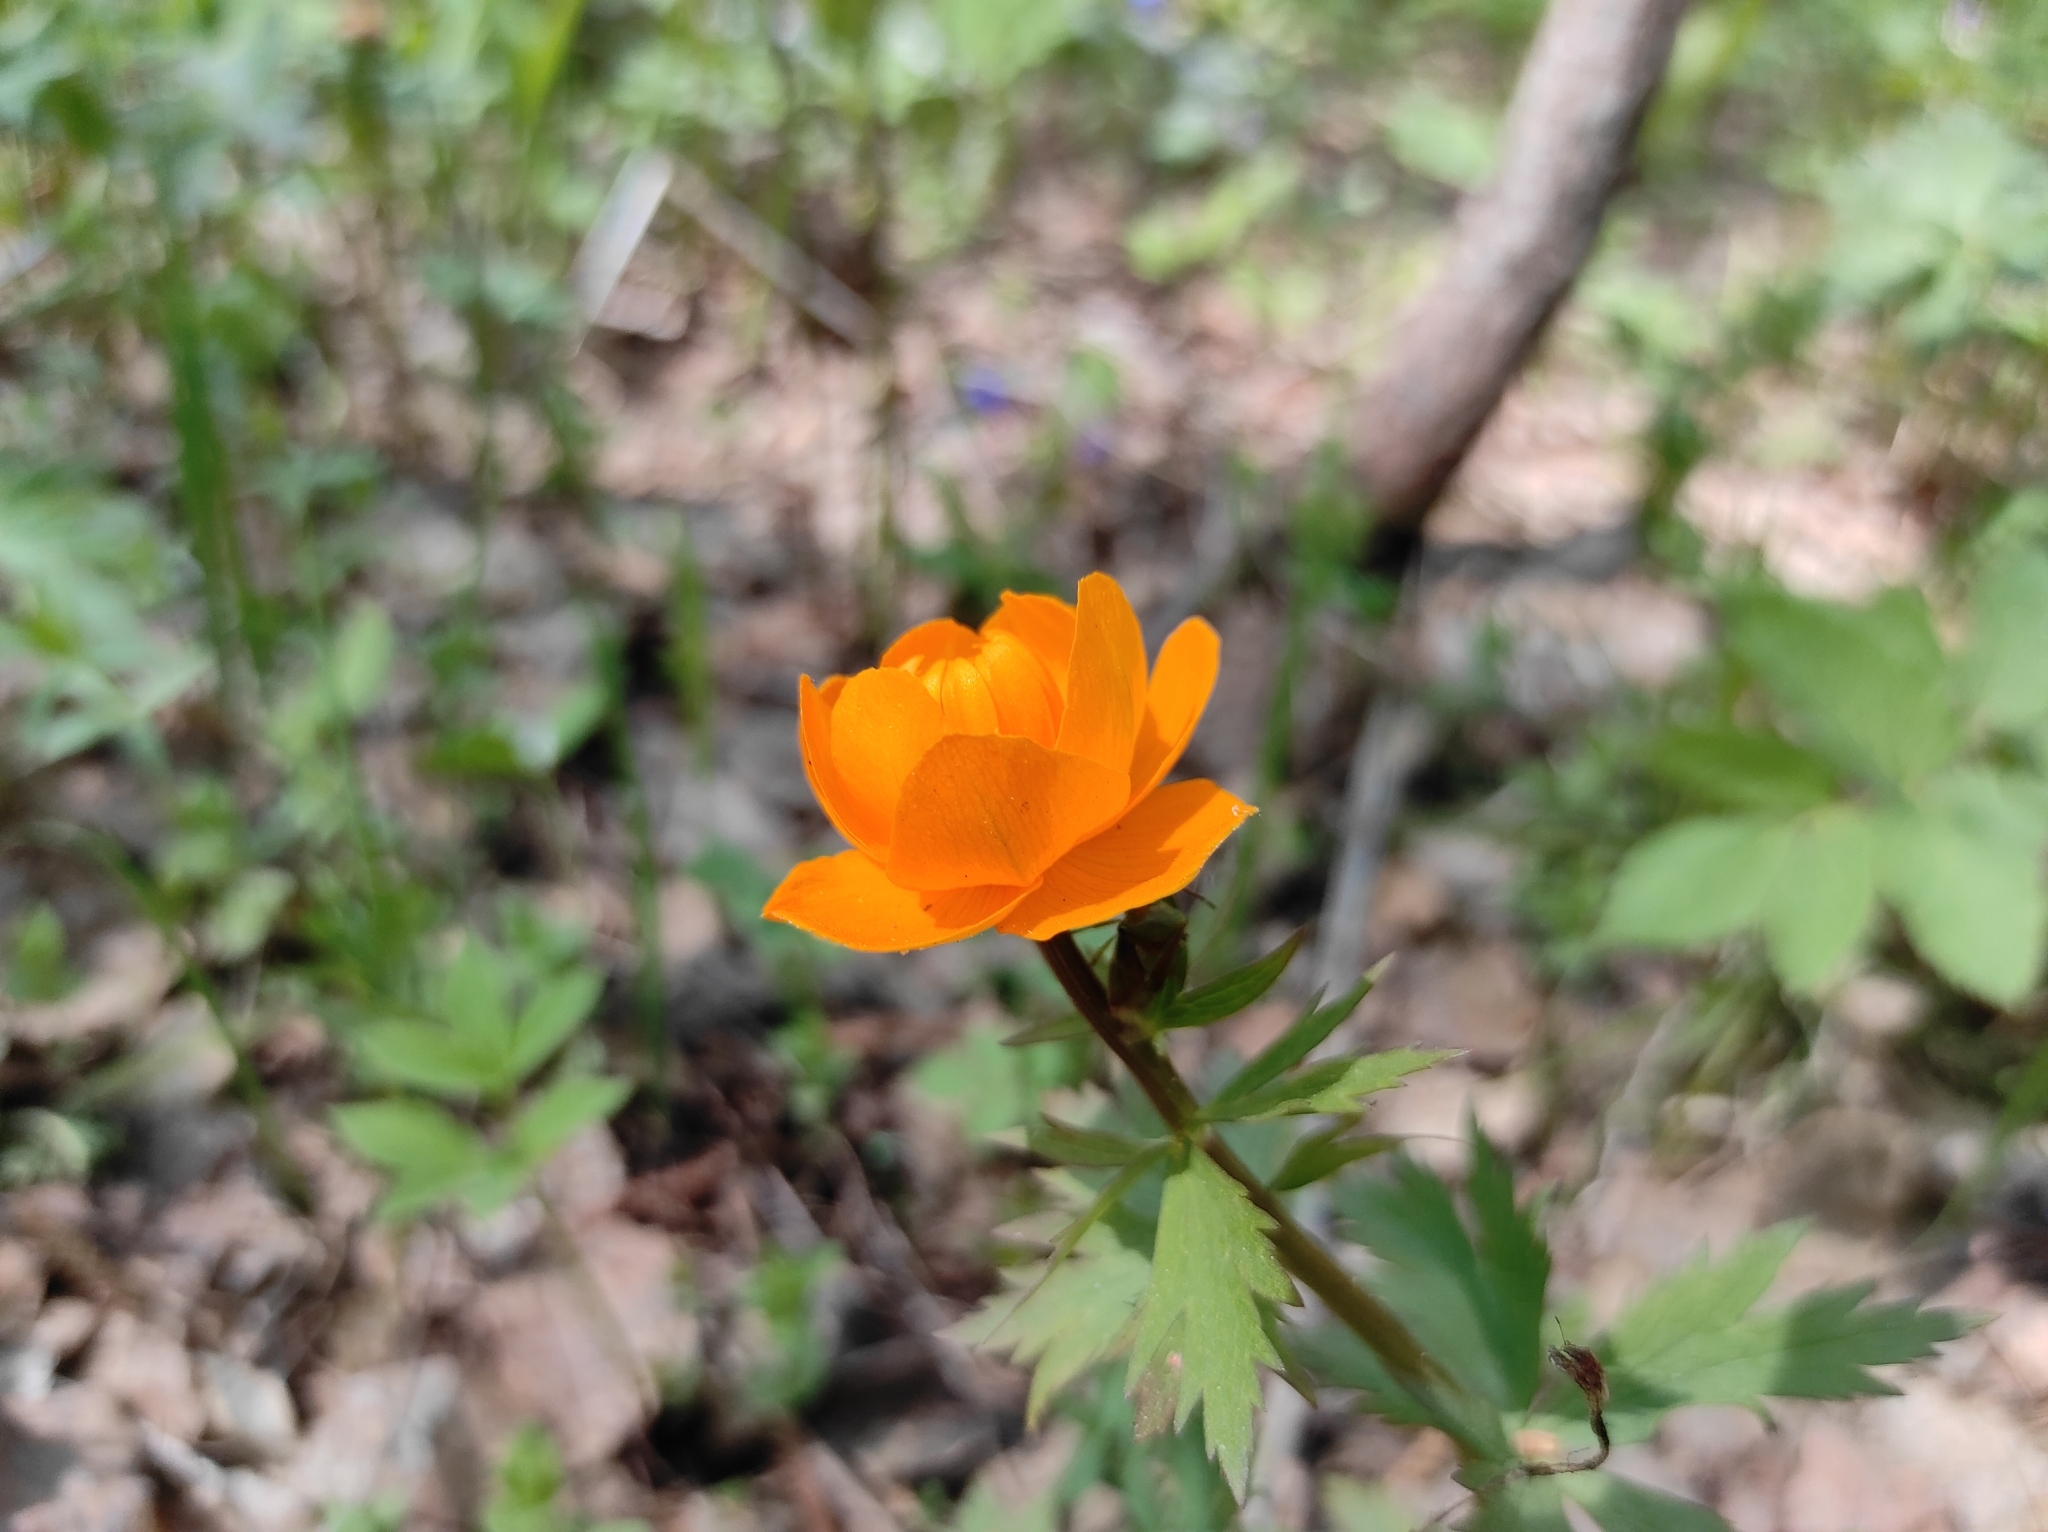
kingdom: Plantae
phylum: Tracheophyta
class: Magnoliopsida
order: Ranunculales
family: Ranunculaceae
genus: Trollius
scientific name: Trollius asiaticus
